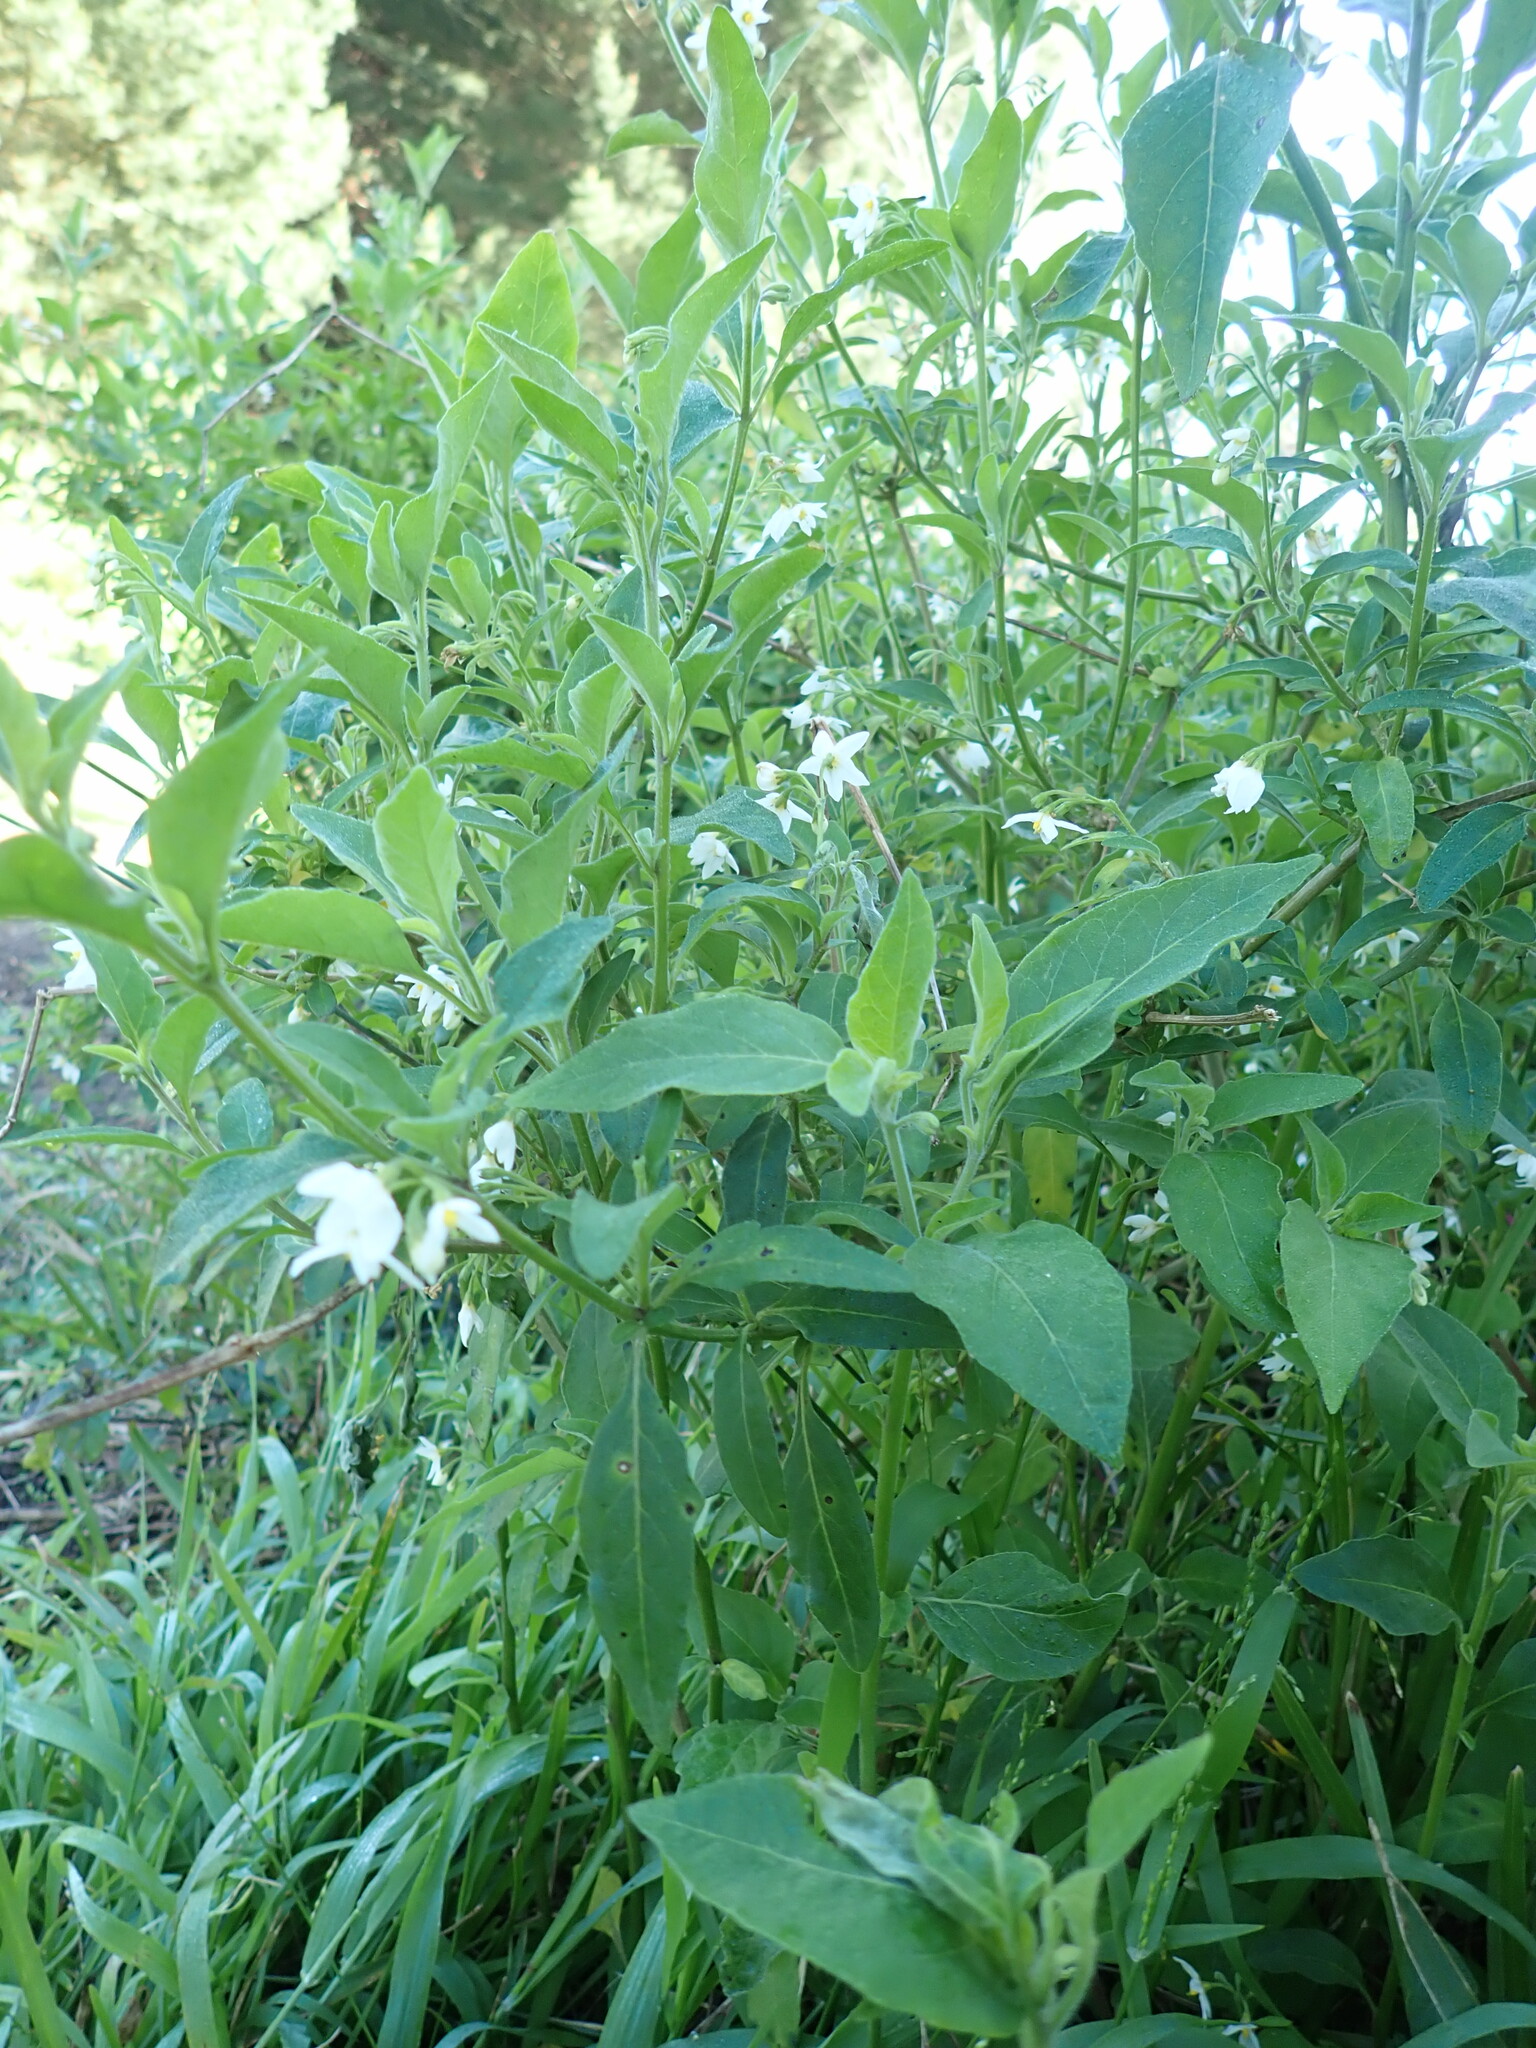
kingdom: Plantae
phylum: Tracheophyta
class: Magnoliopsida
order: Solanales
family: Solanaceae
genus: Solanum
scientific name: Solanum chenopodioides
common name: Tall nightshade
